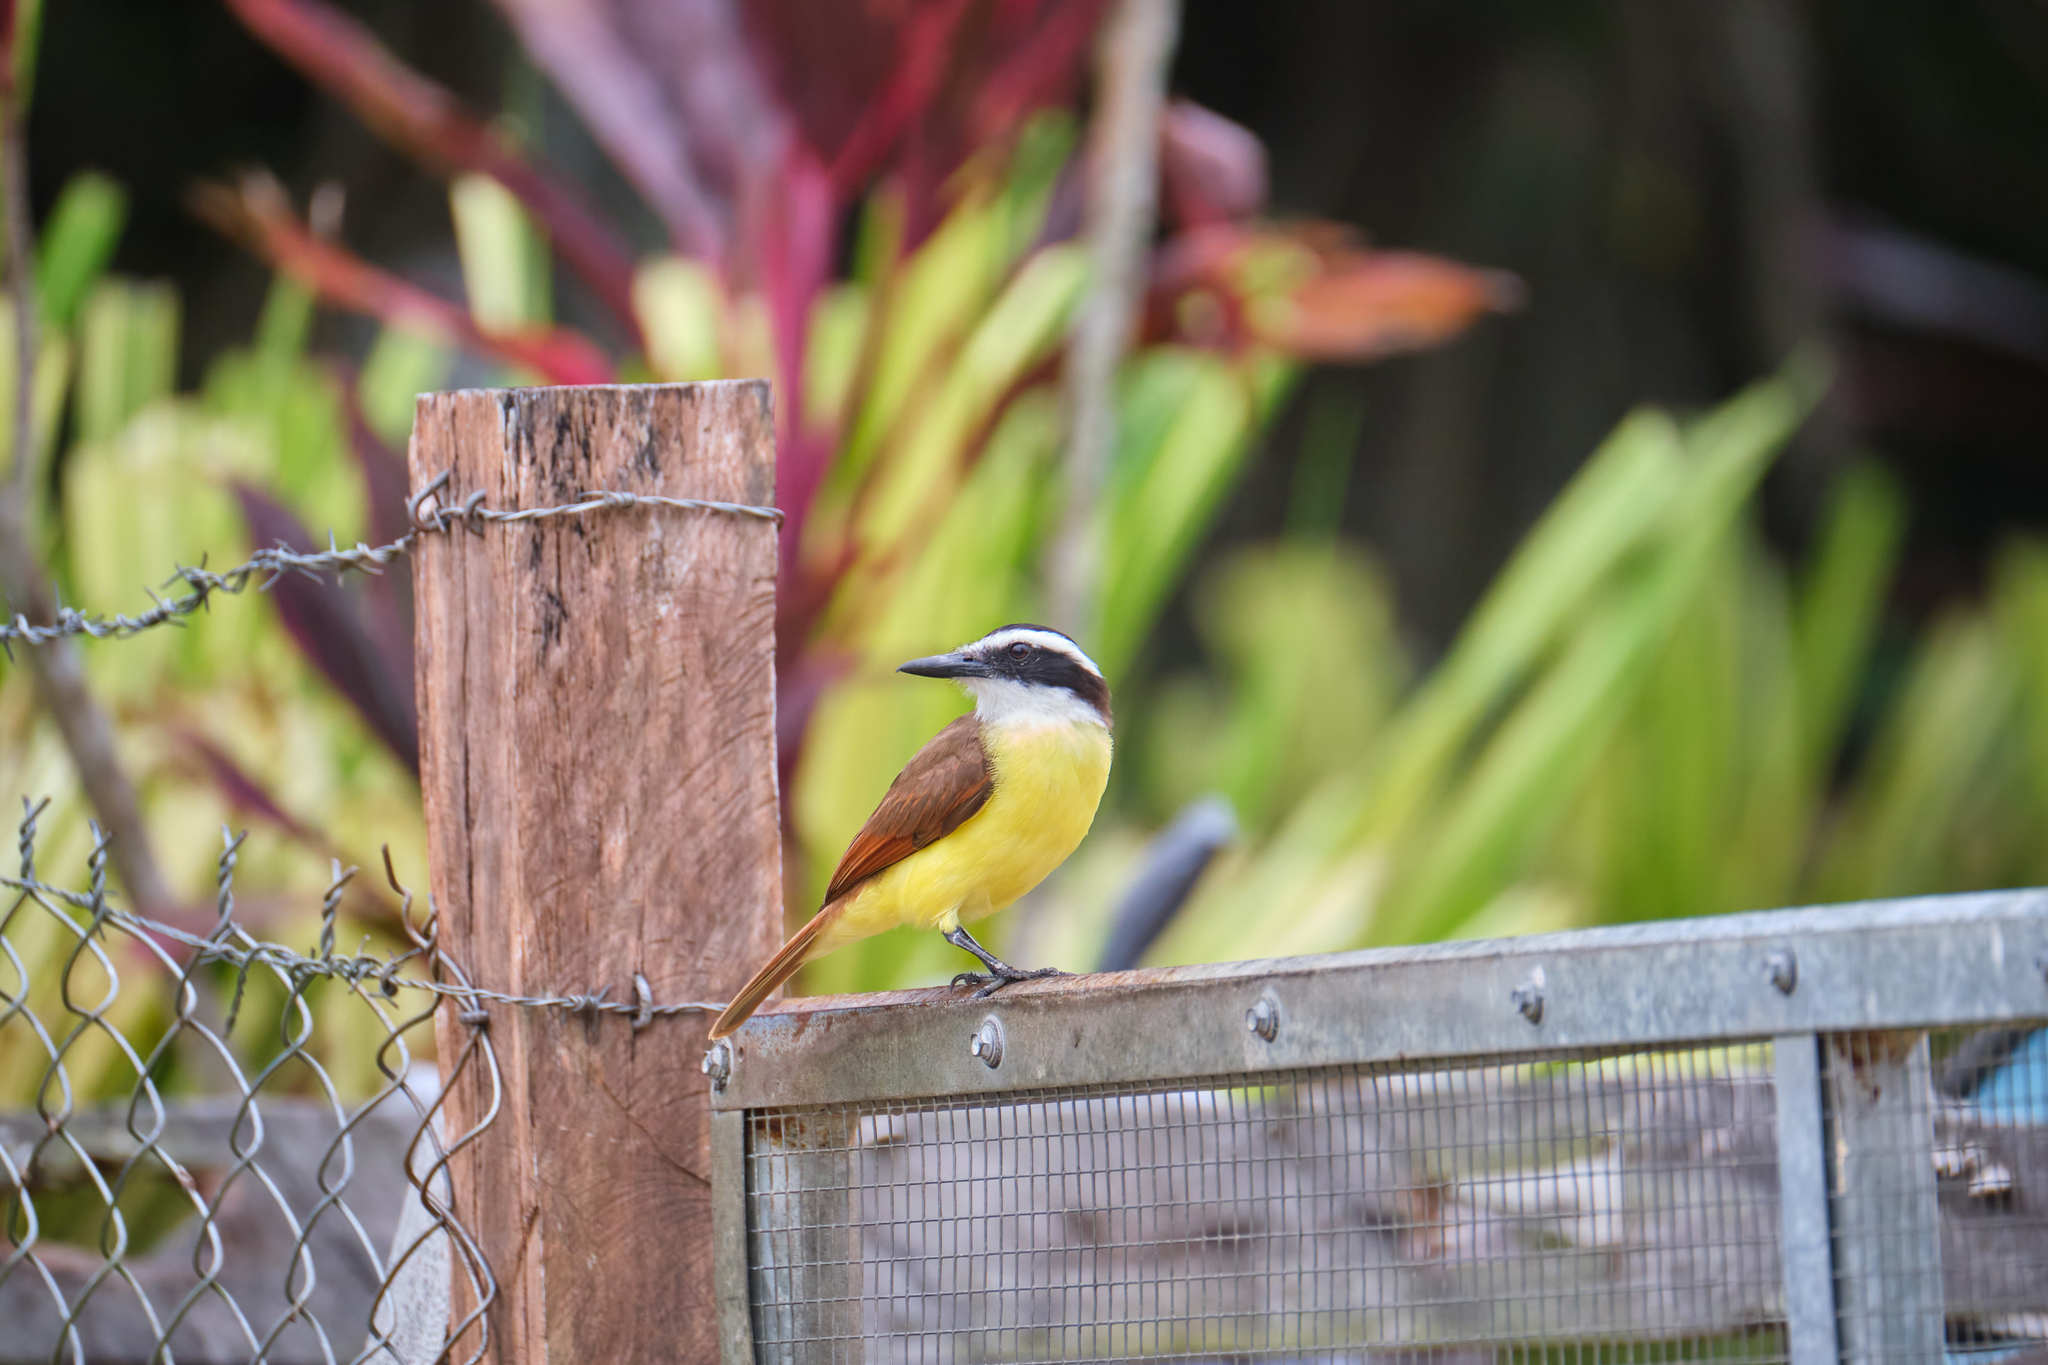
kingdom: Animalia
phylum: Chordata
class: Aves
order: Passeriformes
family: Tyrannidae
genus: Pitangus
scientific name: Pitangus sulphuratus
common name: Great kiskadee
